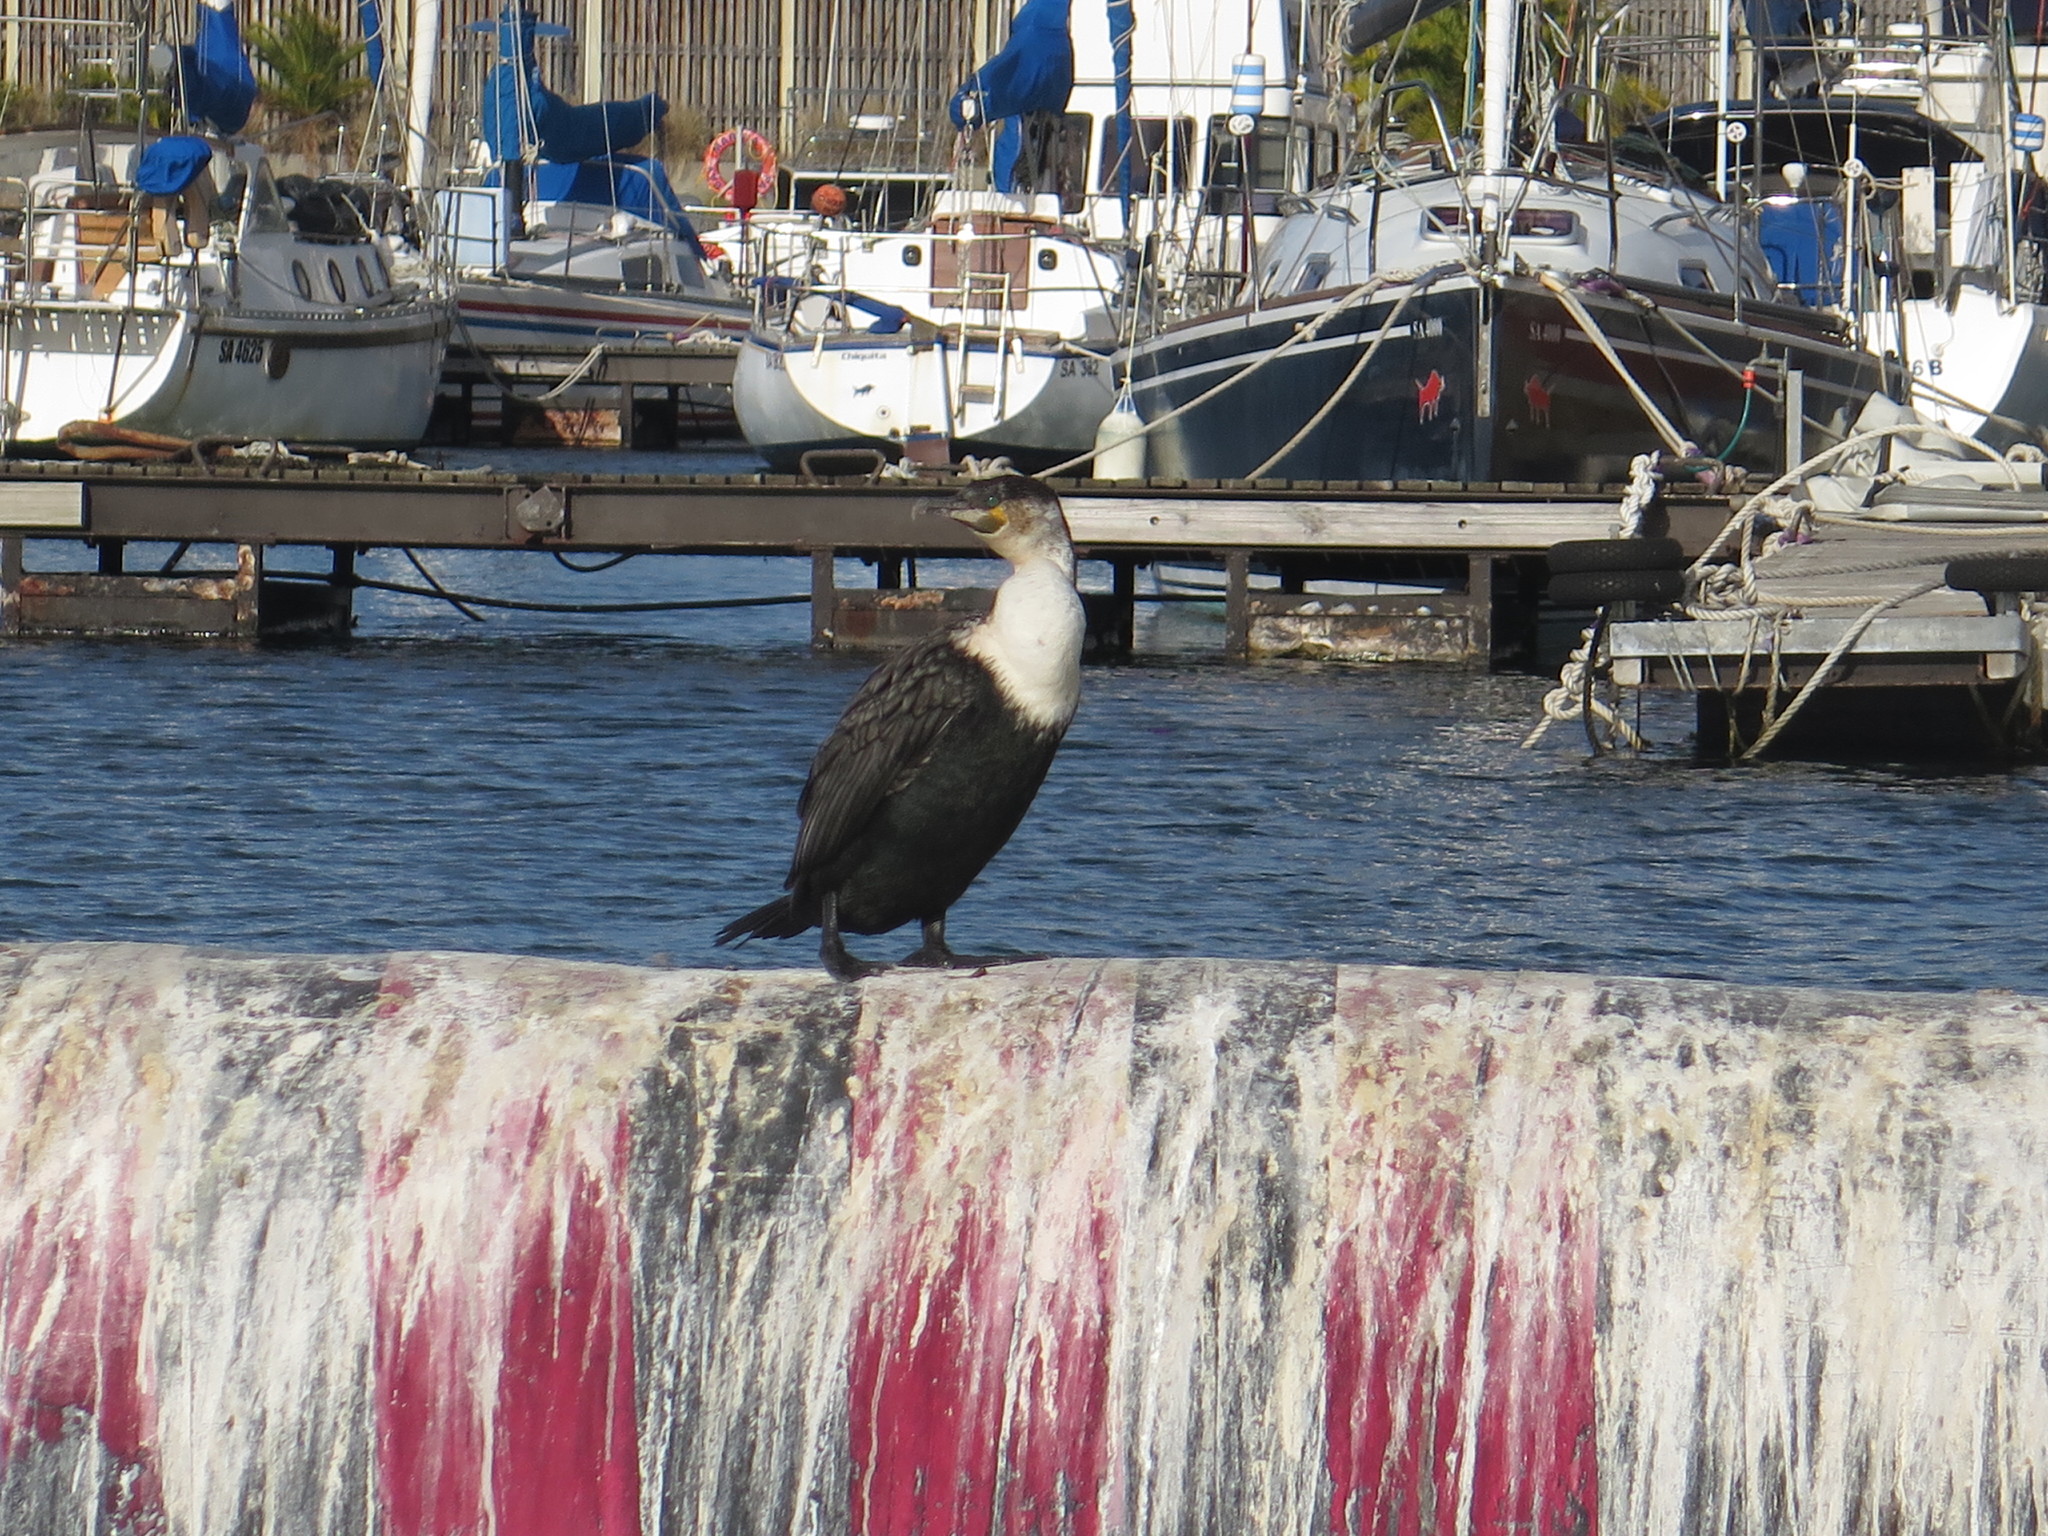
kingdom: Animalia
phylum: Chordata
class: Aves
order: Suliformes
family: Phalacrocoracidae
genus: Phalacrocorax
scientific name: Phalacrocorax carbo
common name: Great cormorant
